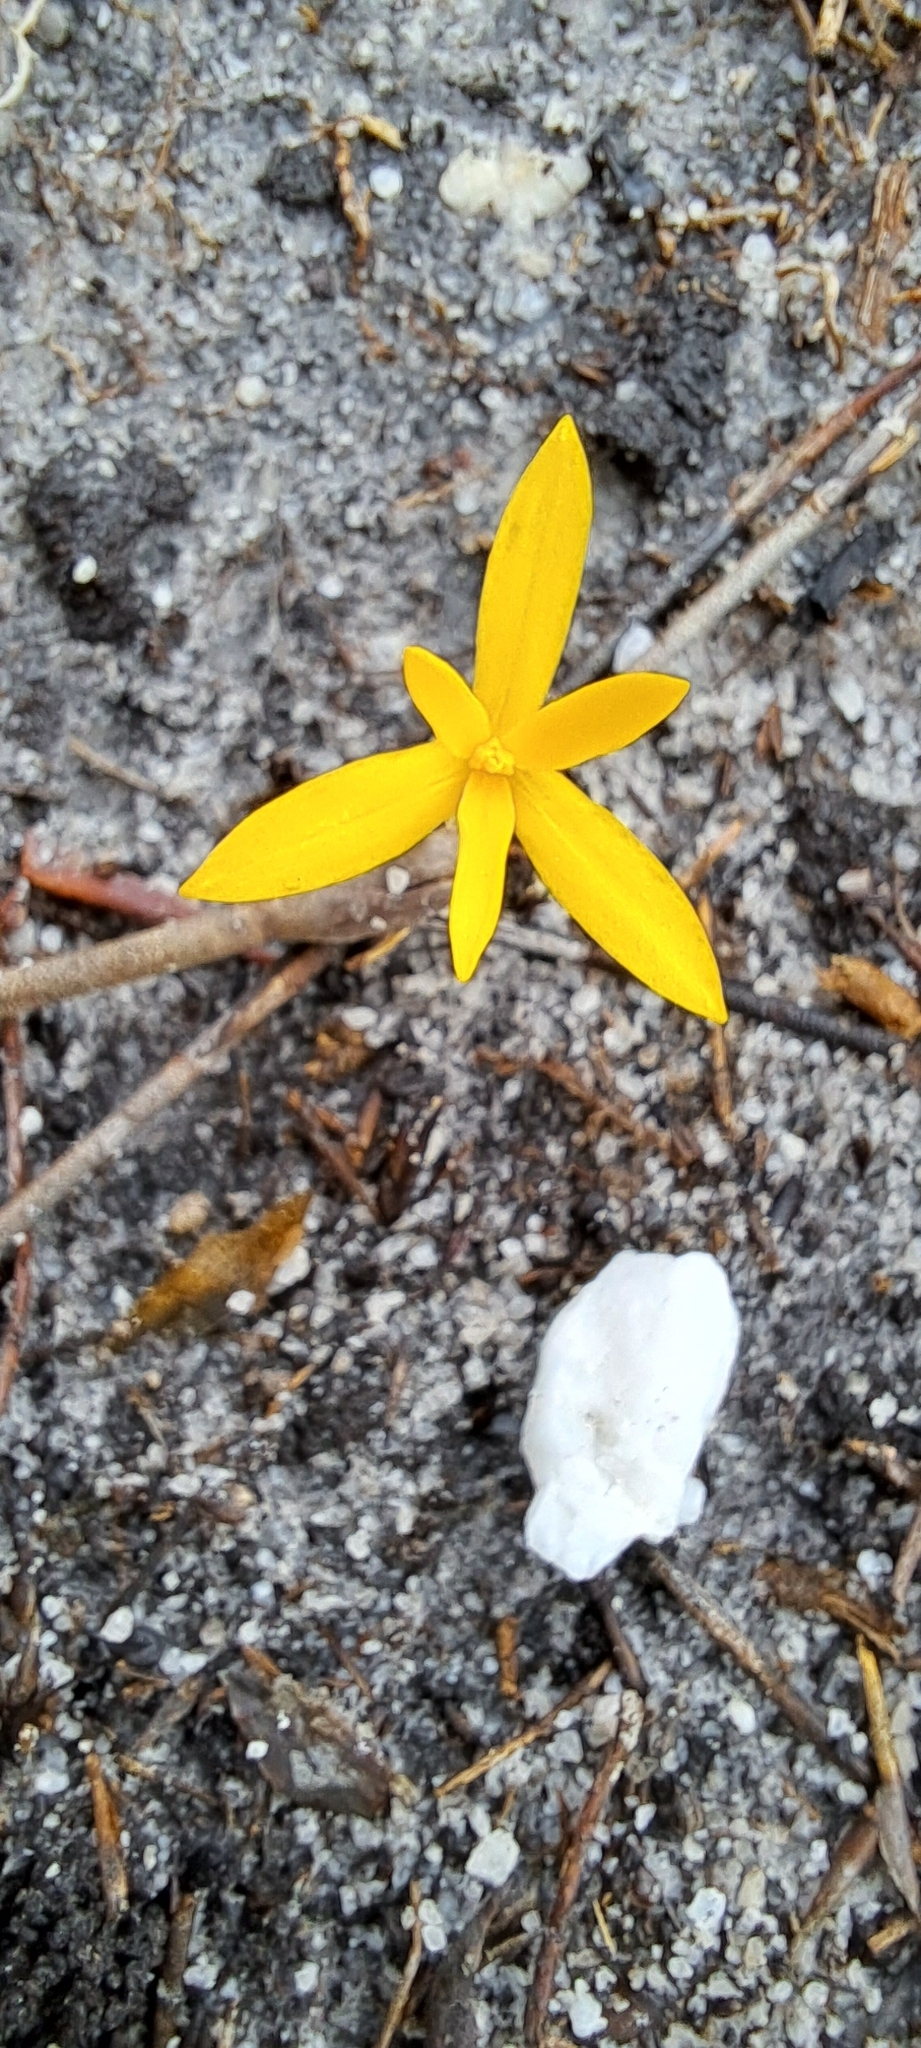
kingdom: Plantae
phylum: Tracheophyta
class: Liliopsida
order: Asparagales
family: Hypoxidaceae
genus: Pauridia
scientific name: Pauridia monophylla
